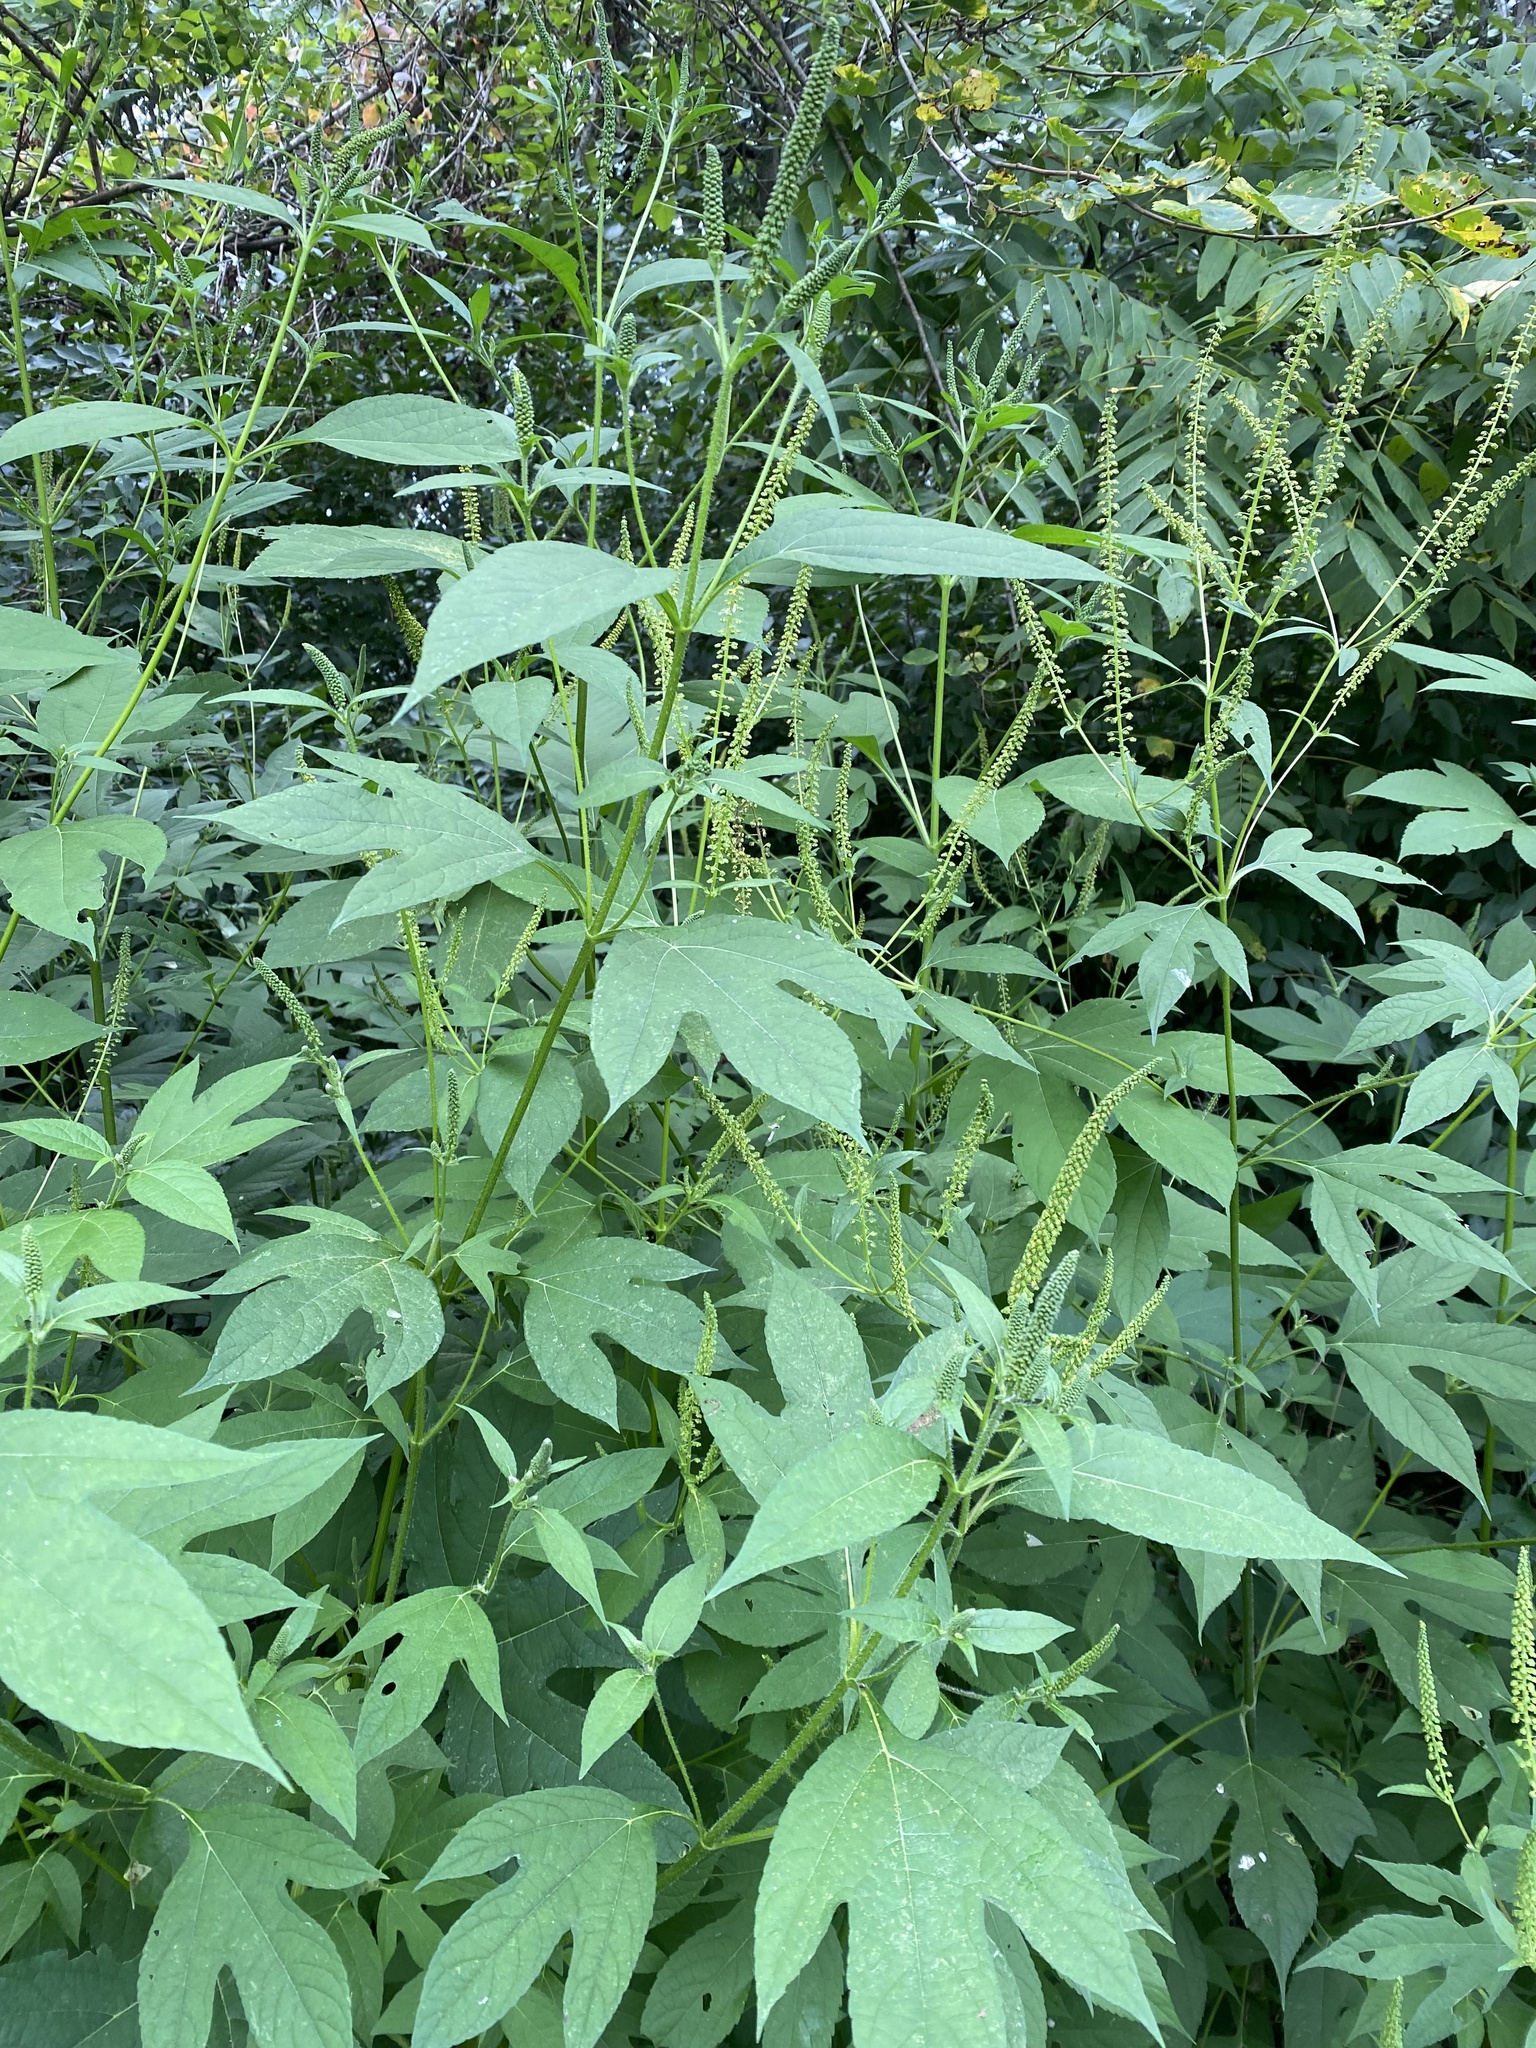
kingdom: Plantae
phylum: Tracheophyta
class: Magnoliopsida
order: Asterales
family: Asteraceae
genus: Ambrosia
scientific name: Ambrosia trifida
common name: Giant ragweed
